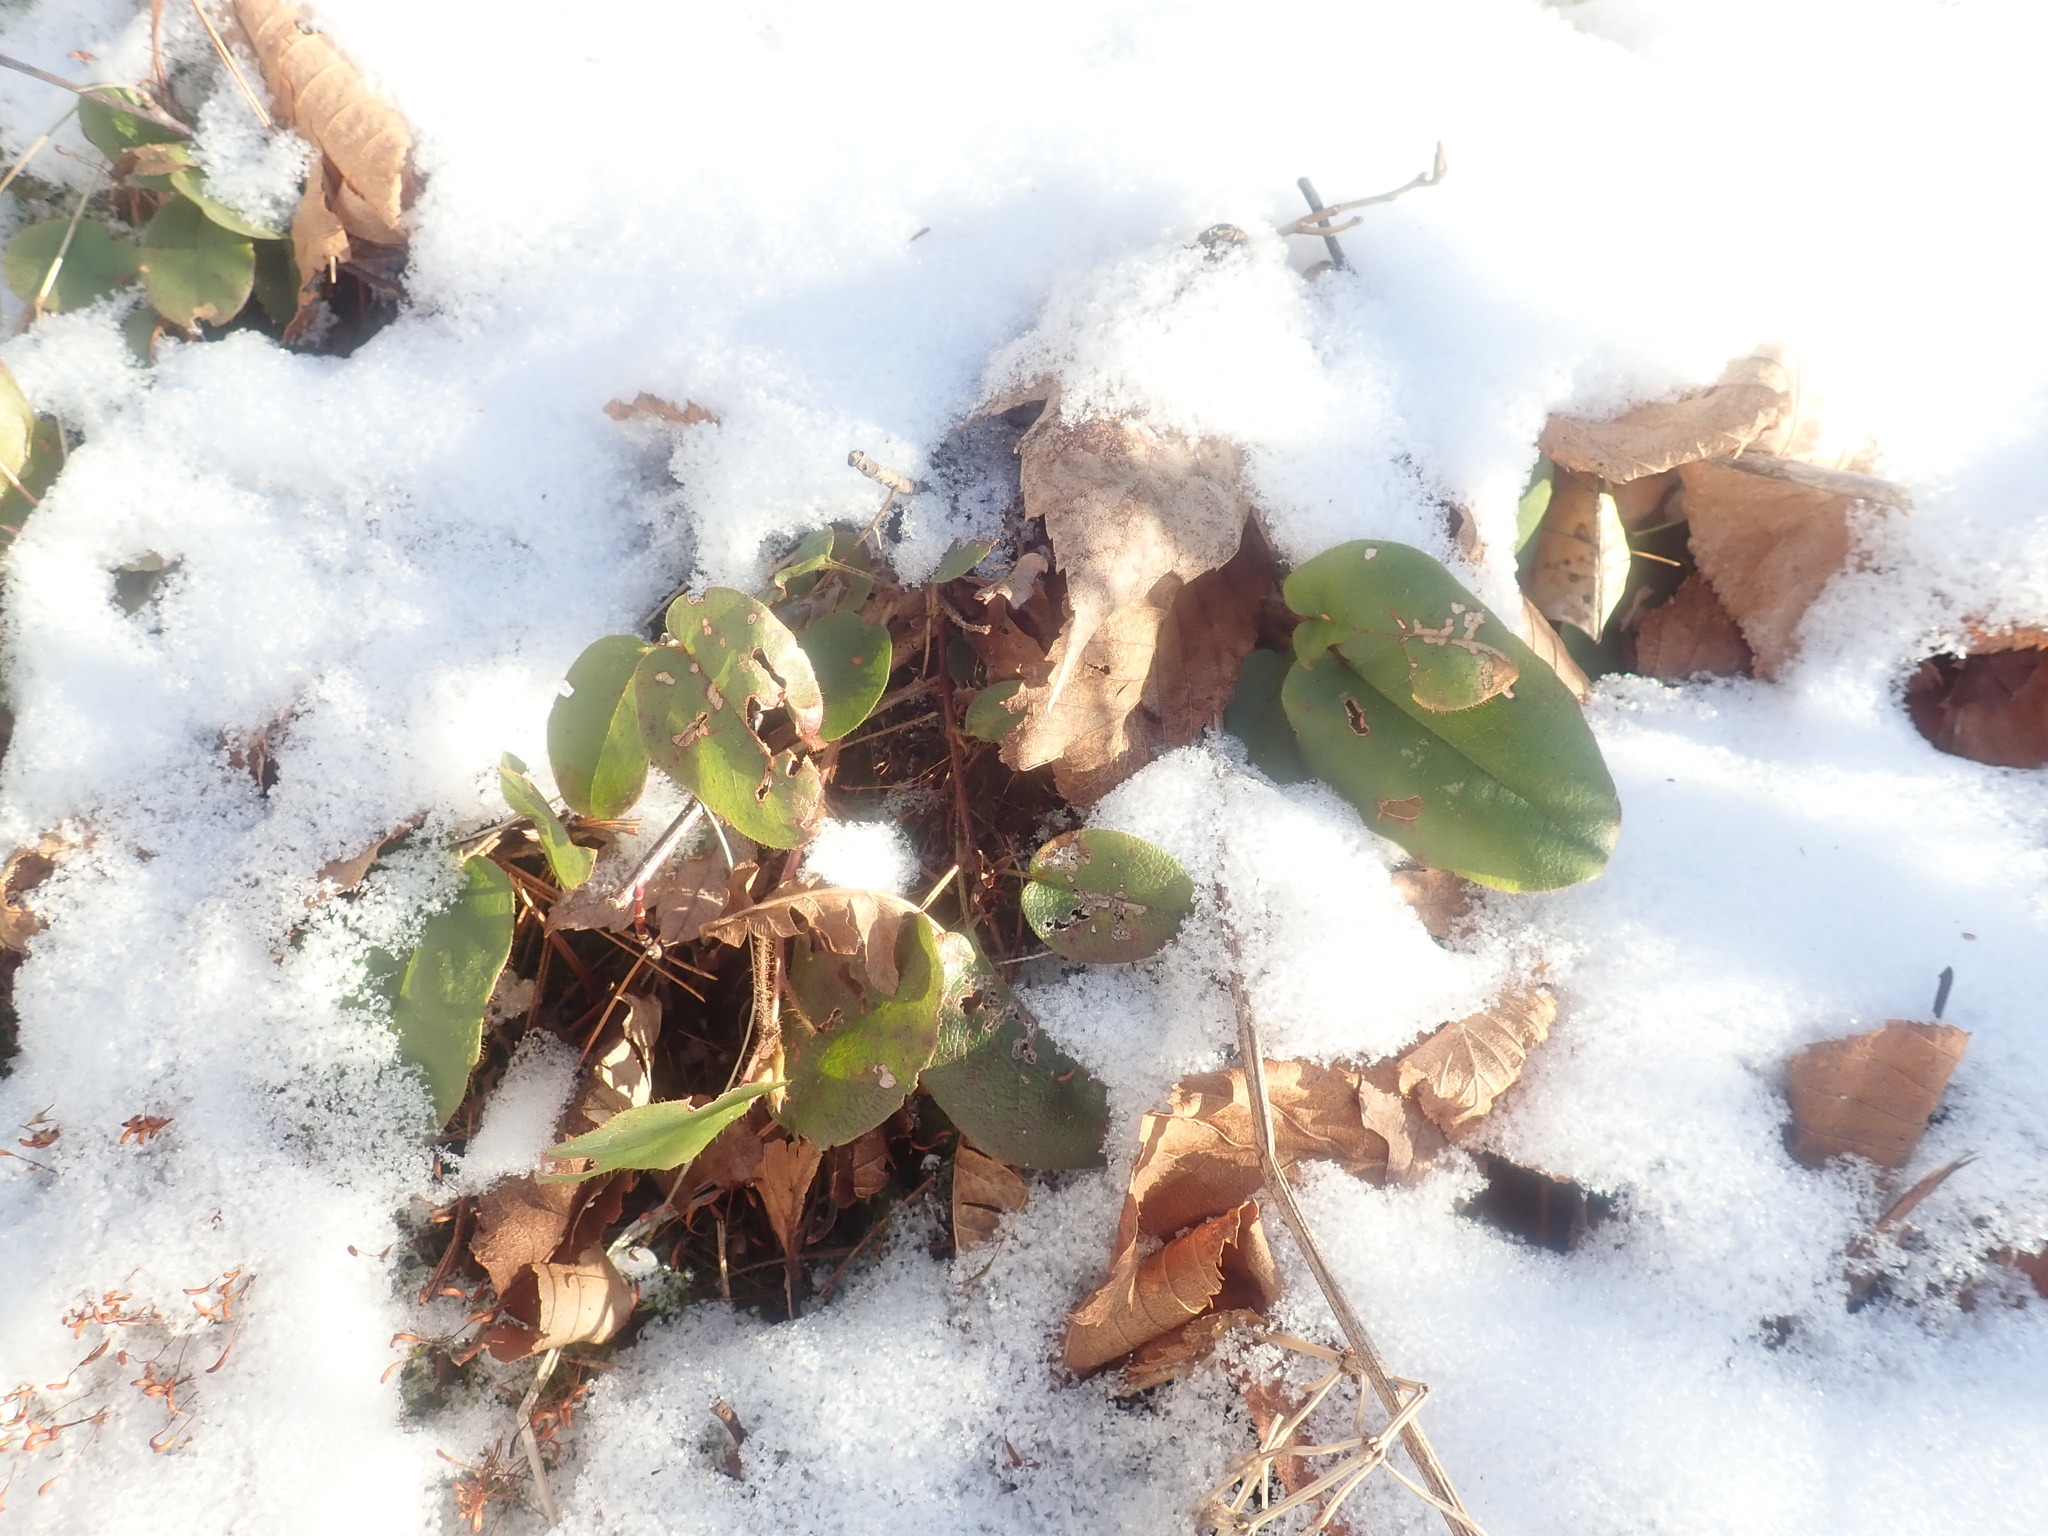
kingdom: Plantae
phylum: Tracheophyta
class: Magnoliopsida
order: Ericales
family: Ericaceae
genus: Epigaea
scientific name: Epigaea repens
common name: Gravelroot
